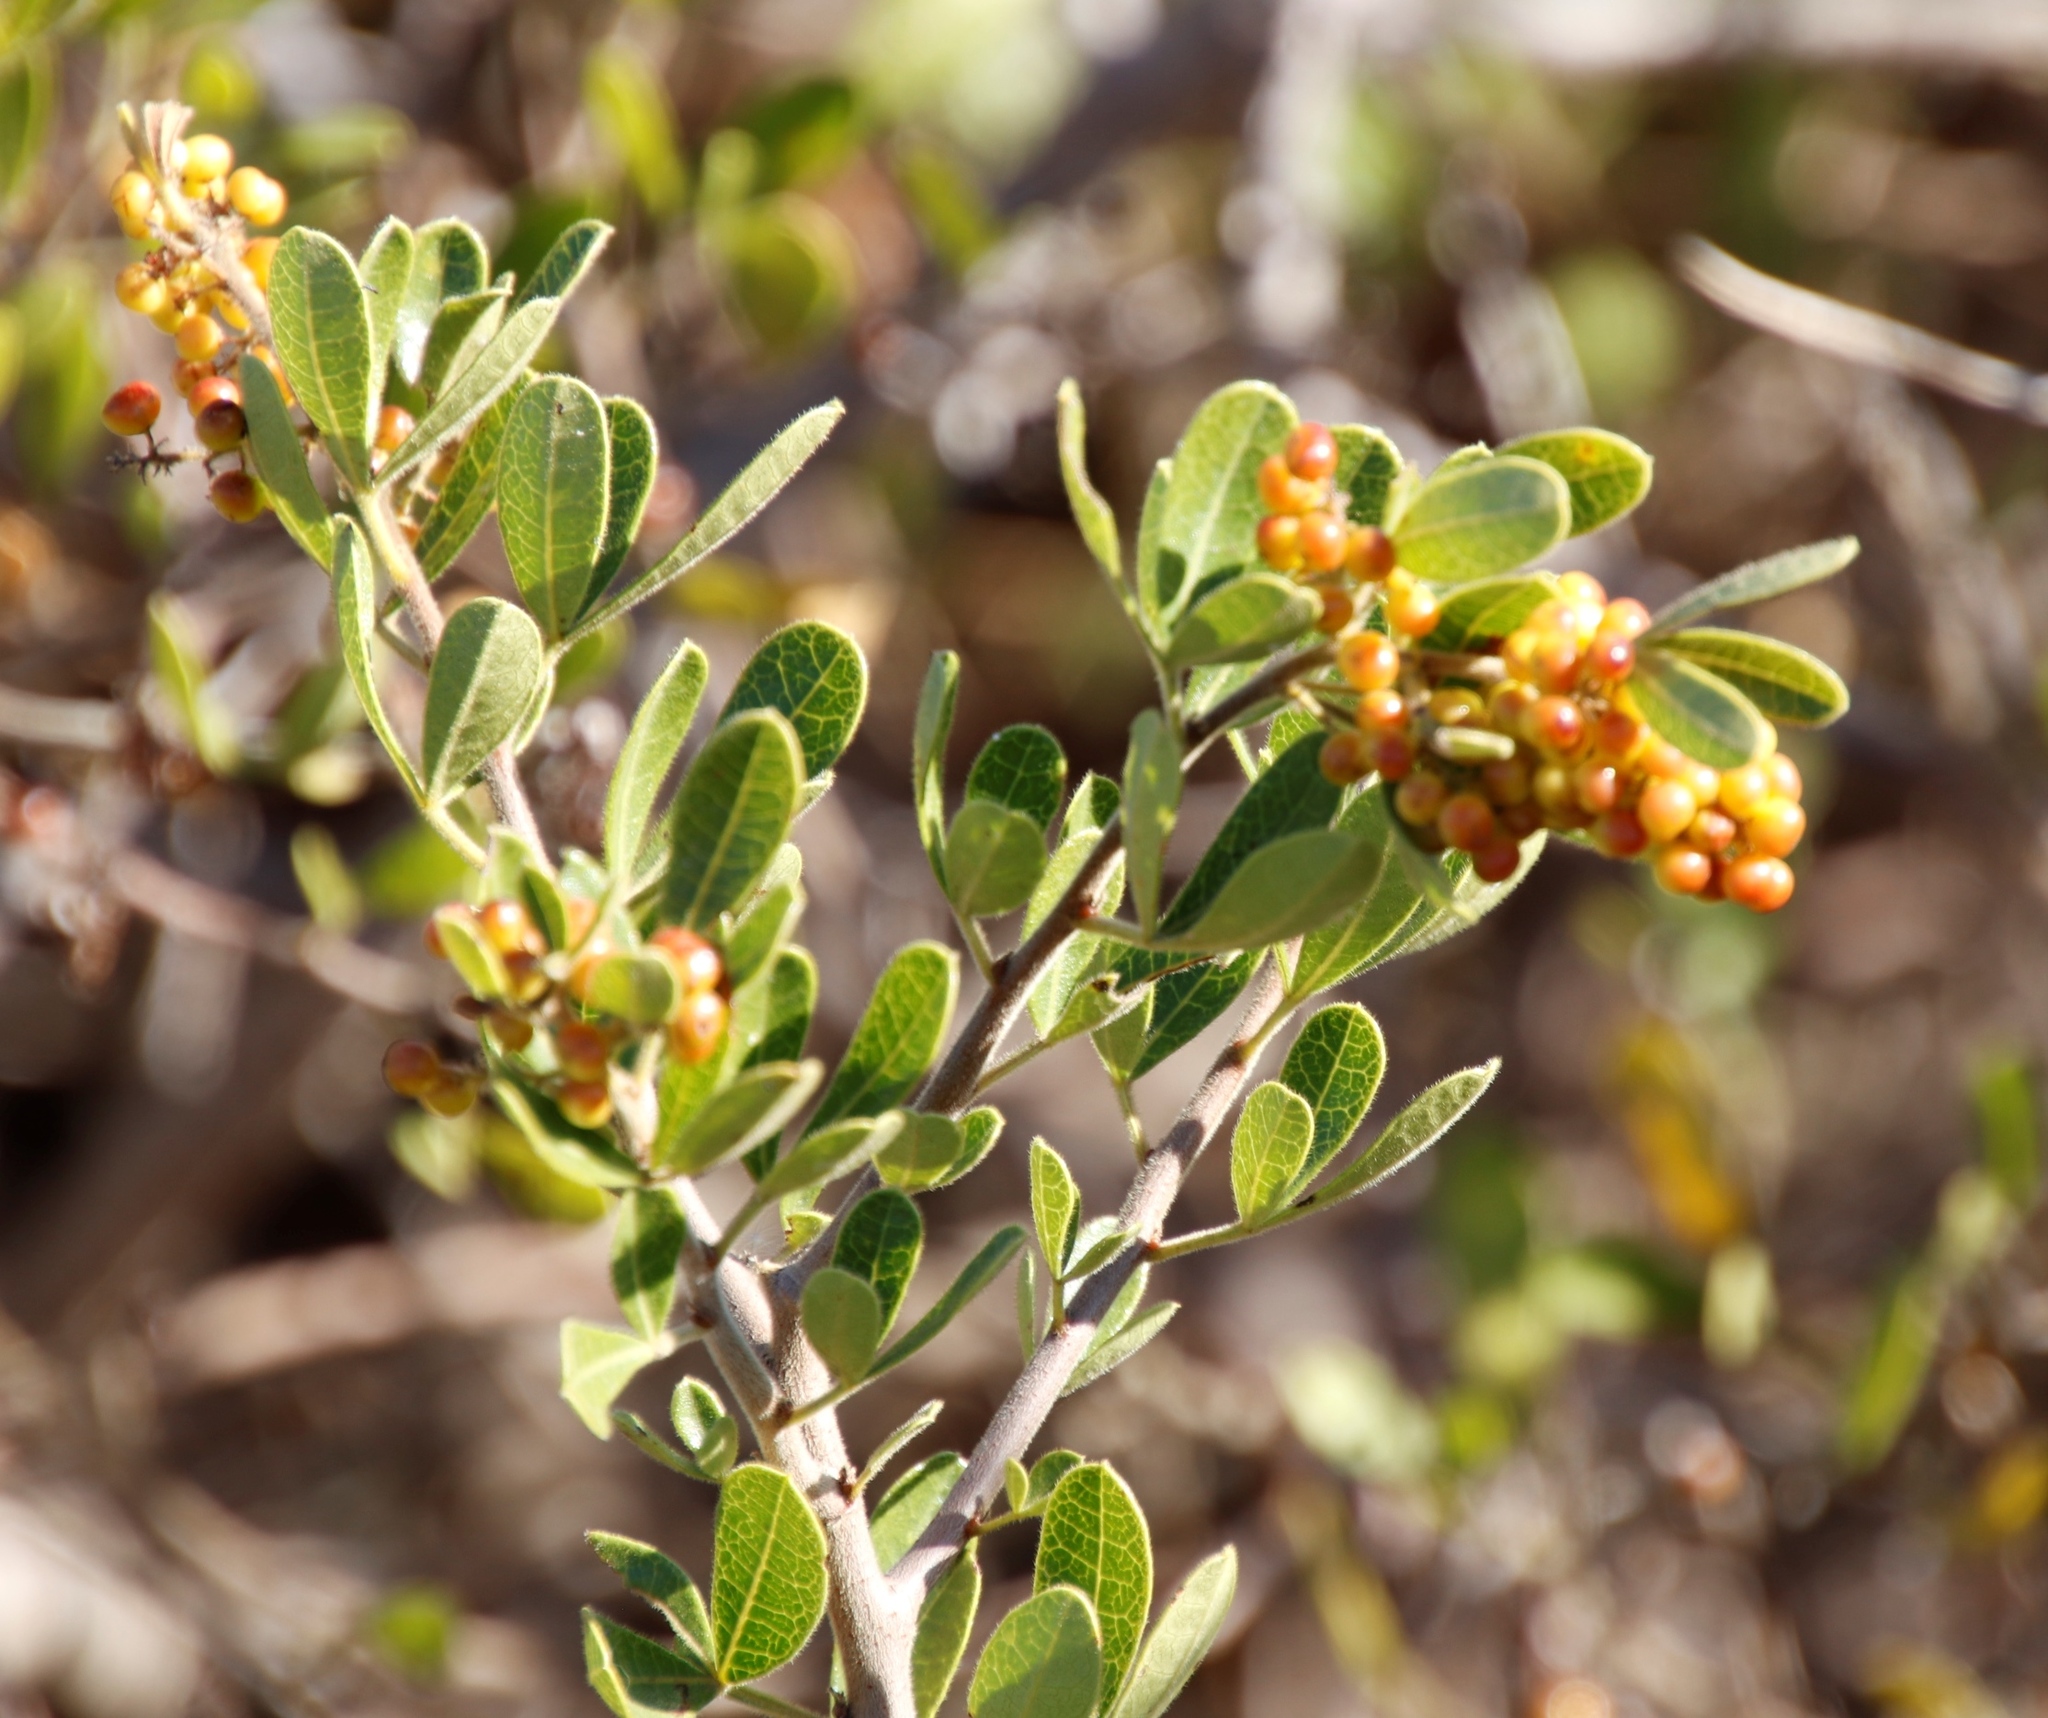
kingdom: Plantae
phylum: Tracheophyta
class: Magnoliopsida
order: Sapindales
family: Anacardiaceae
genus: Searsia
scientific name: Searsia laevigata
